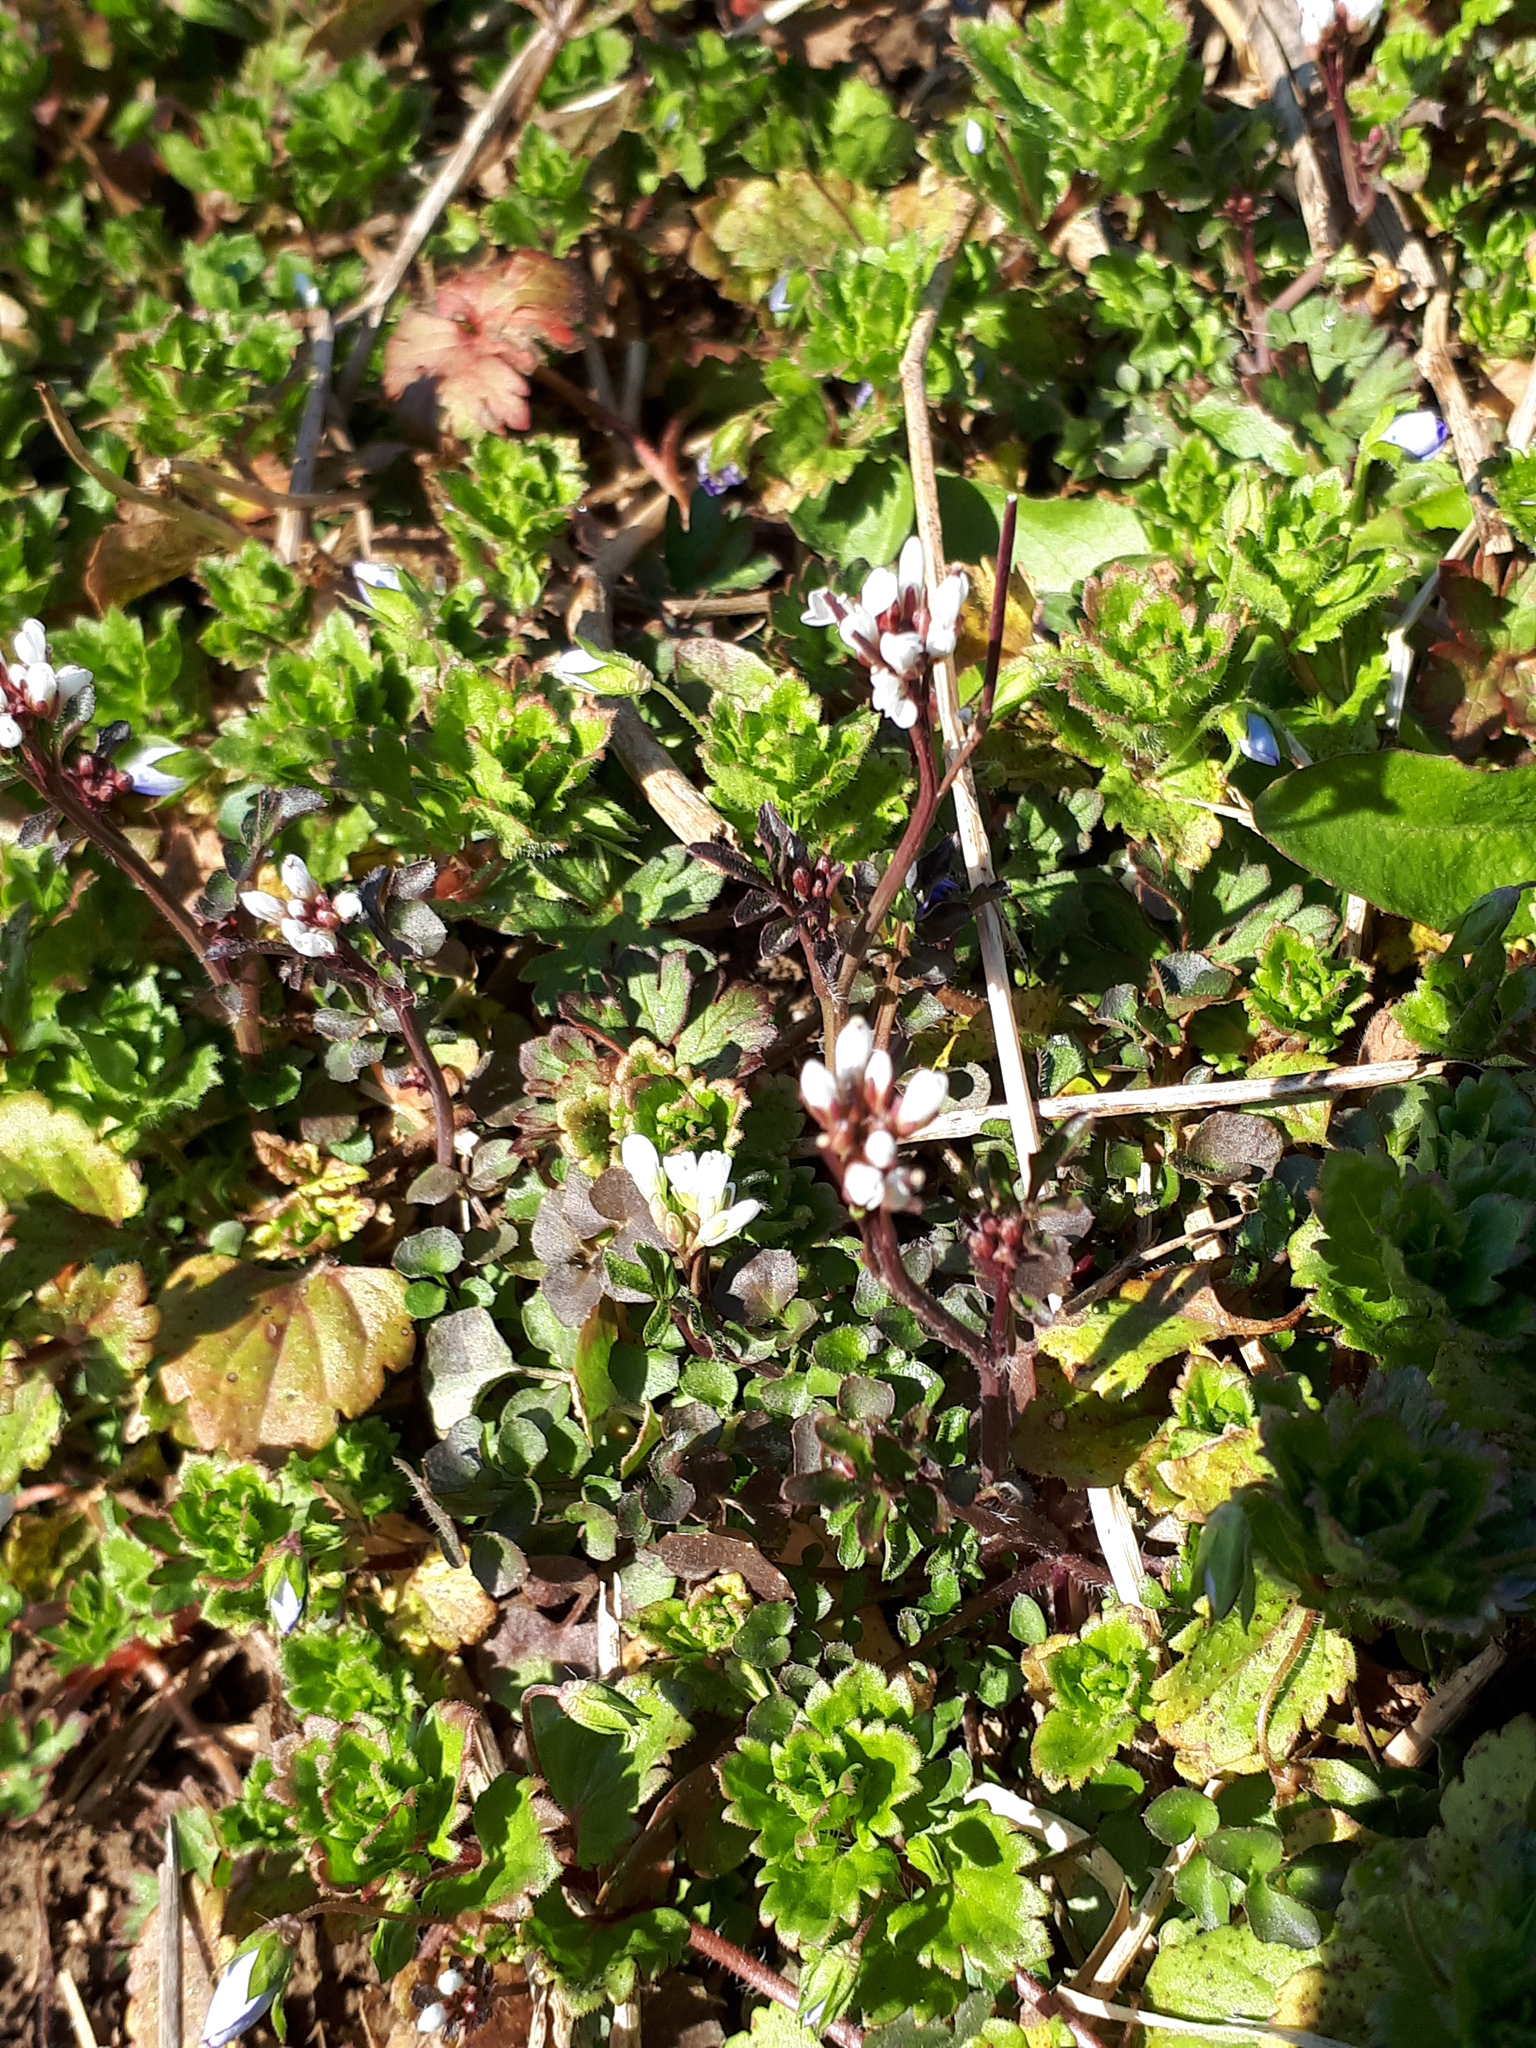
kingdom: Plantae
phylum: Tracheophyta
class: Magnoliopsida
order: Brassicales
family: Brassicaceae
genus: Cardamine
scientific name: Cardamine hirsuta
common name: Hairy bittercress
